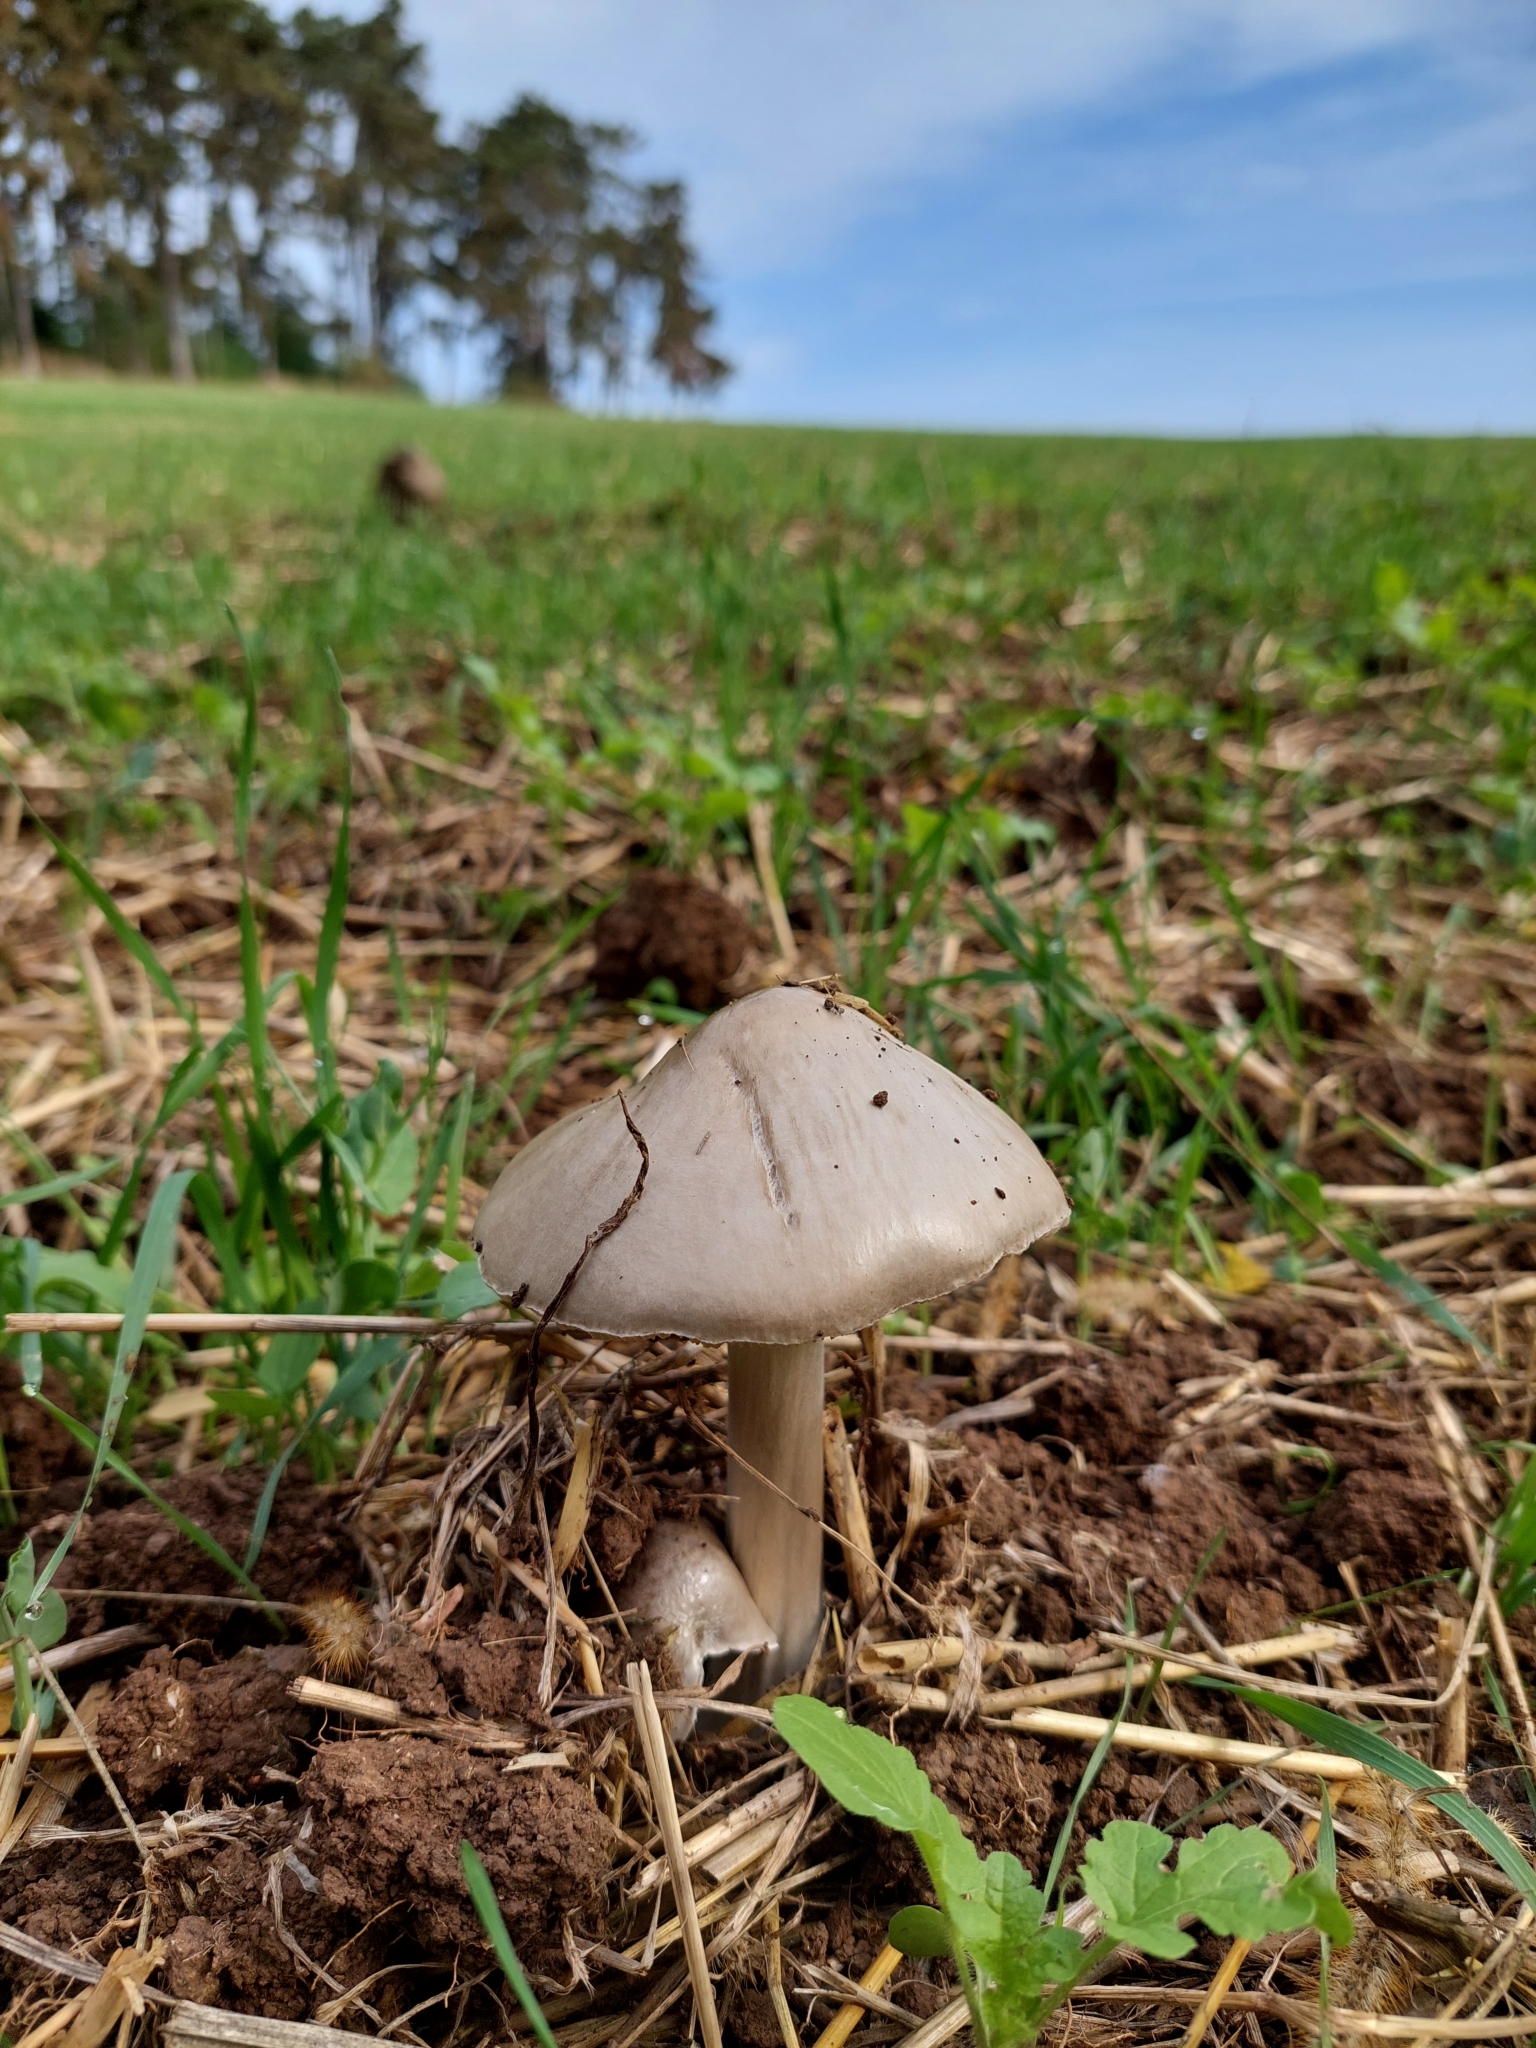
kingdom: Fungi
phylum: Basidiomycota
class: Agaricomycetes
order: Agaricales
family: Pluteaceae
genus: Volvopluteus
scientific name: Volvopluteus gloiocephalus
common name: Stubble rosegill
